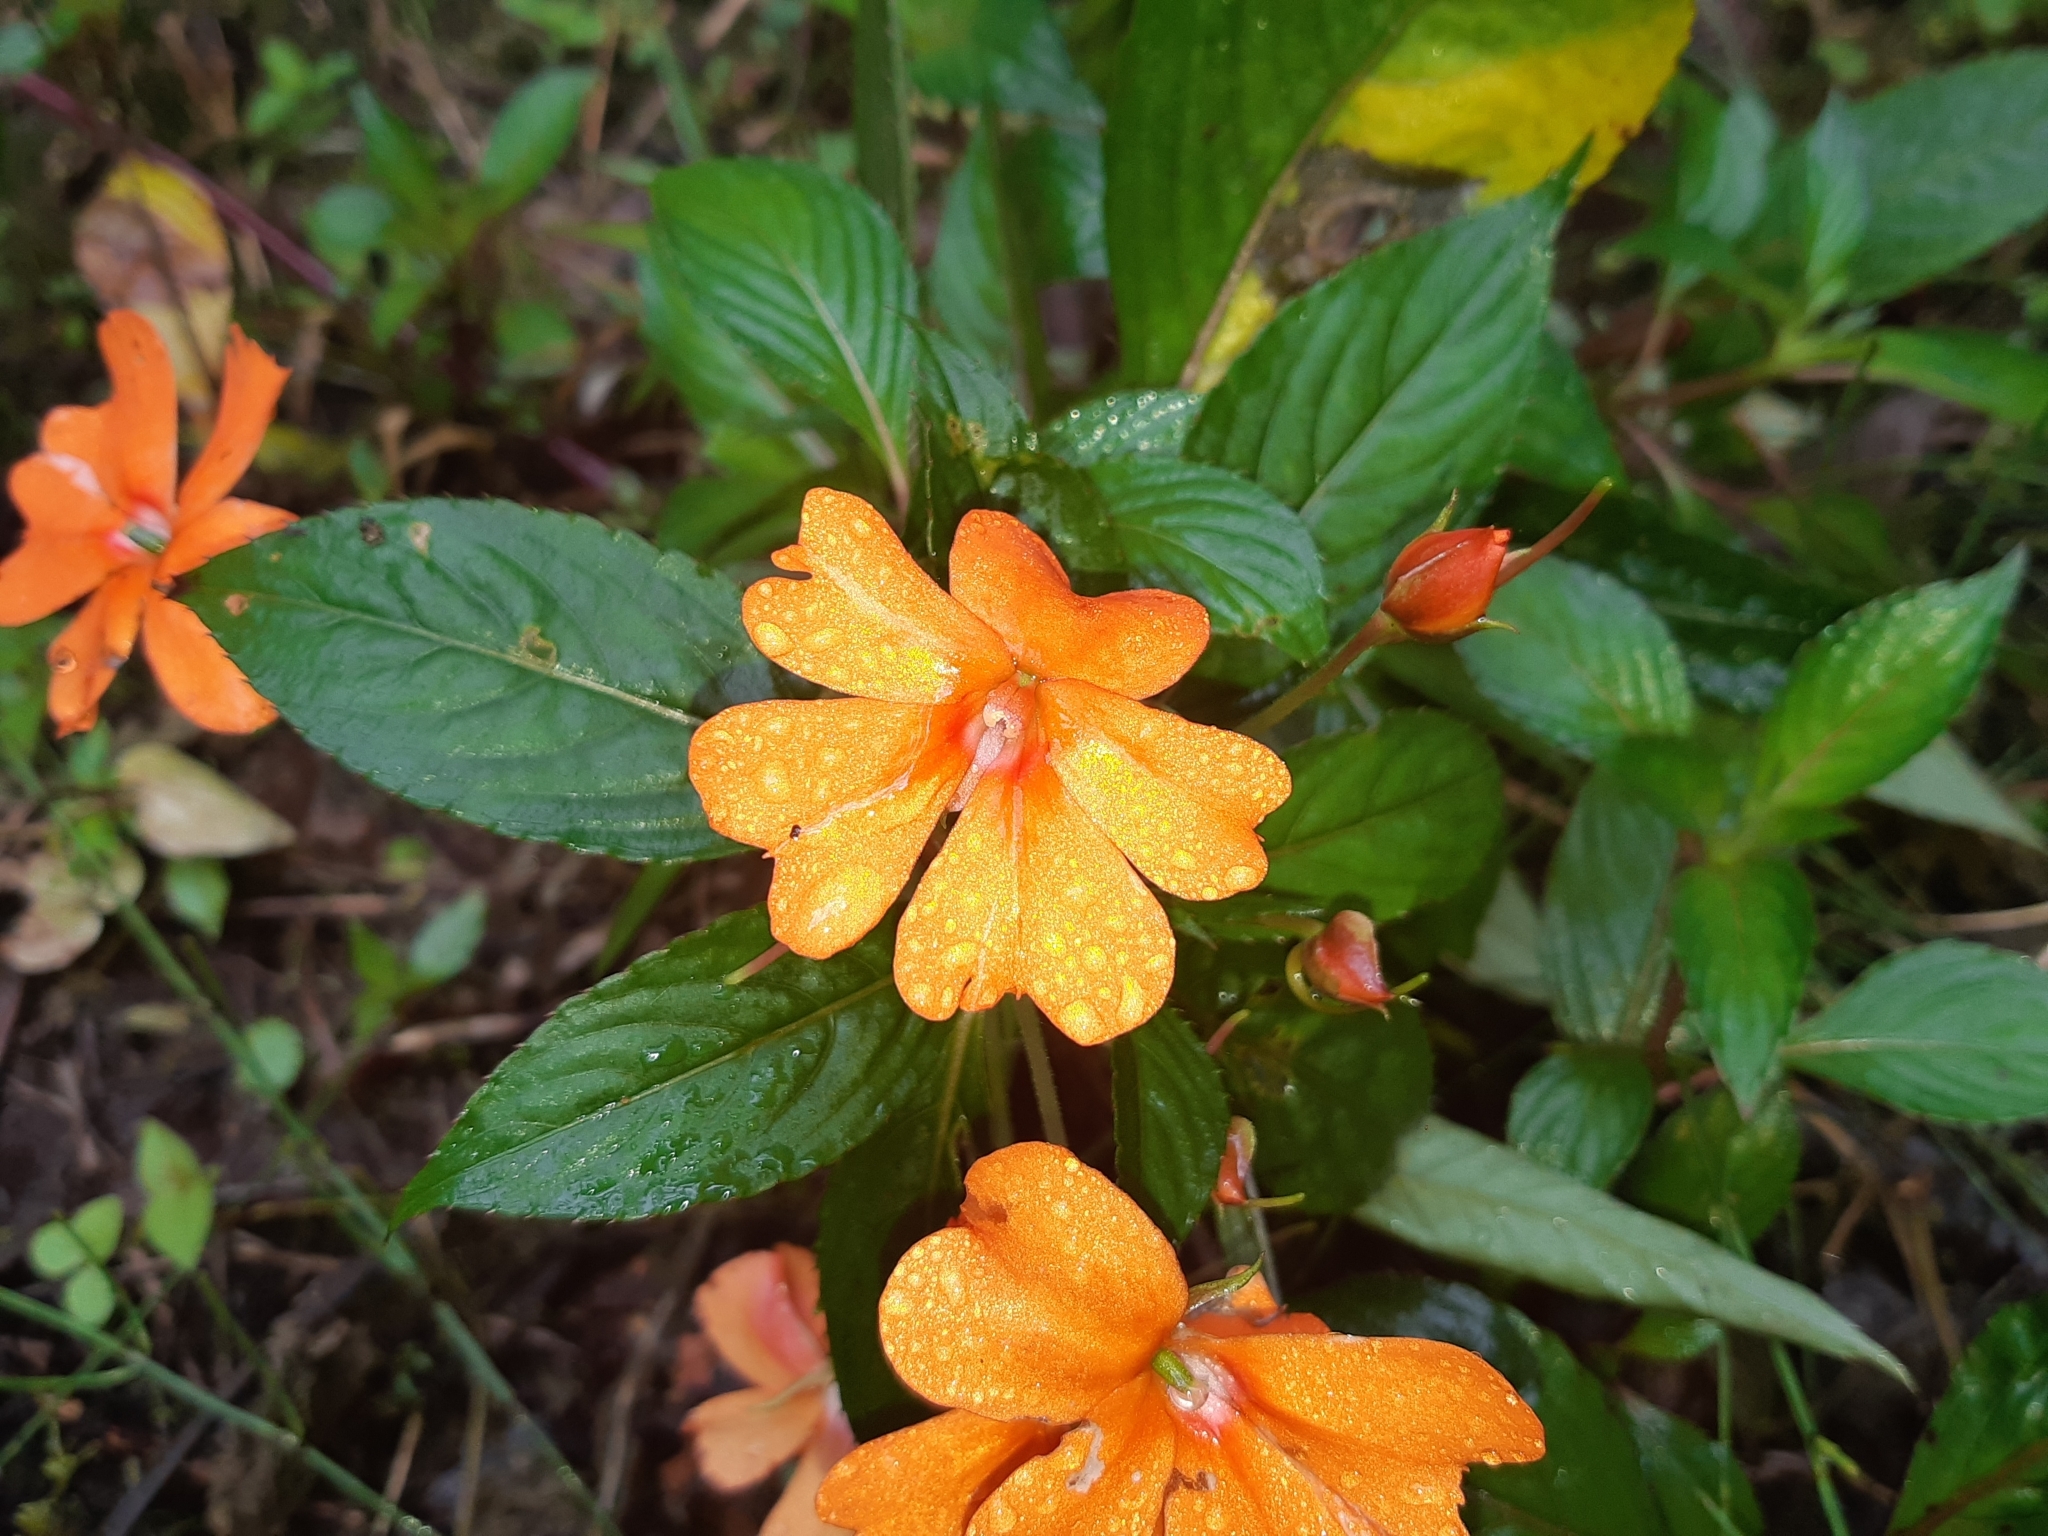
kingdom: Plantae
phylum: Tracheophyta
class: Magnoliopsida
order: Ericales
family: Balsaminaceae
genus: Impatiens
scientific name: Impatiens hawkeri
